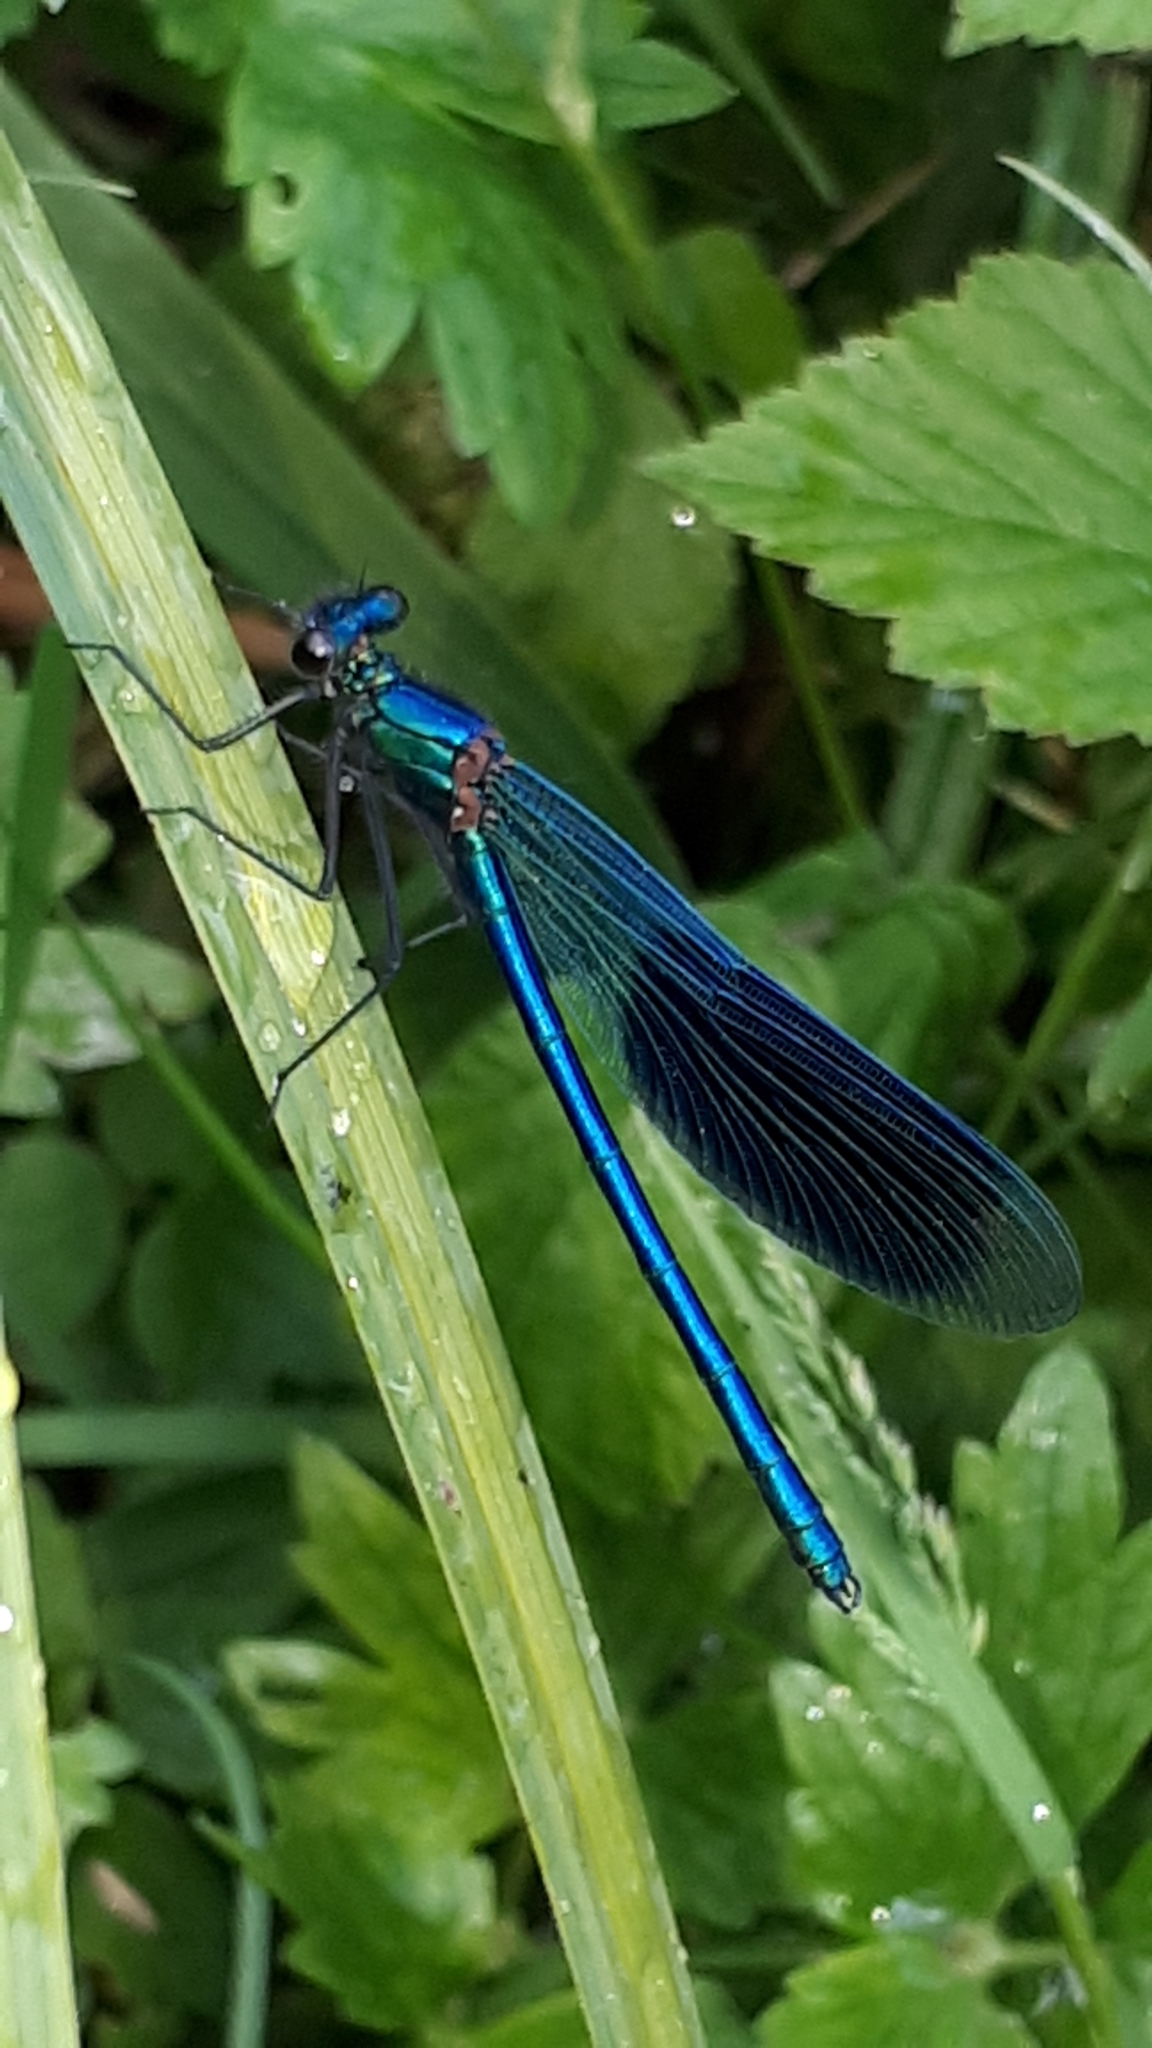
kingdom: Animalia
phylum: Arthropoda
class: Insecta
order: Odonata
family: Calopterygidae
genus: Calopteryx
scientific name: Calopteryx splendens
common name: Banded demoiselle
